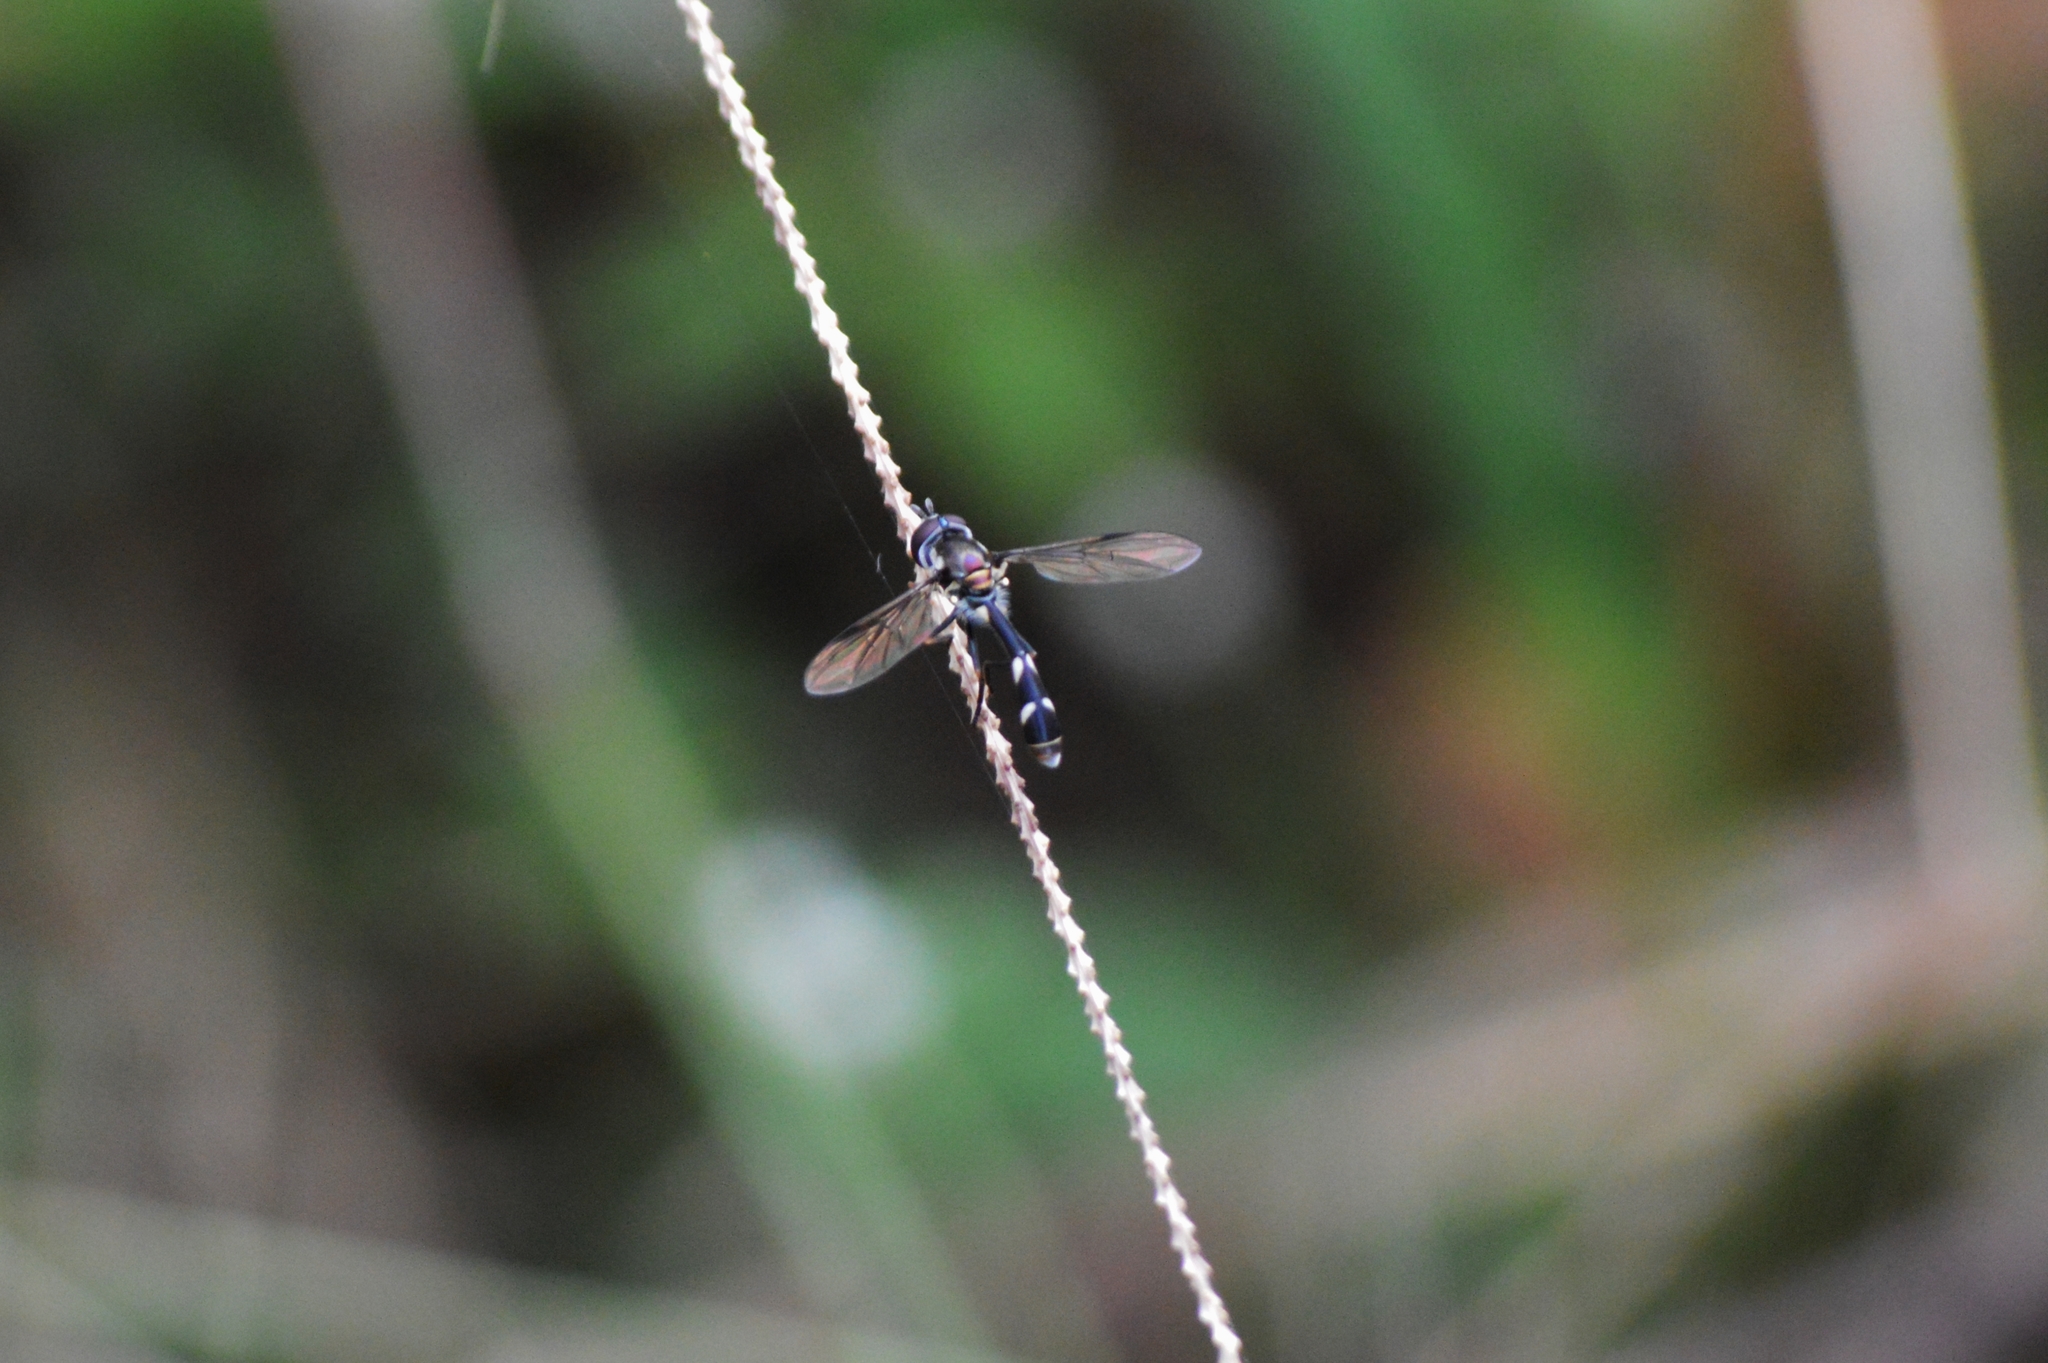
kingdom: Animalia
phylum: Arthropoda
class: Insecta
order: Diptera
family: Syrphidae
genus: Dioprosopa
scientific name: Dioprosopa clavatus
